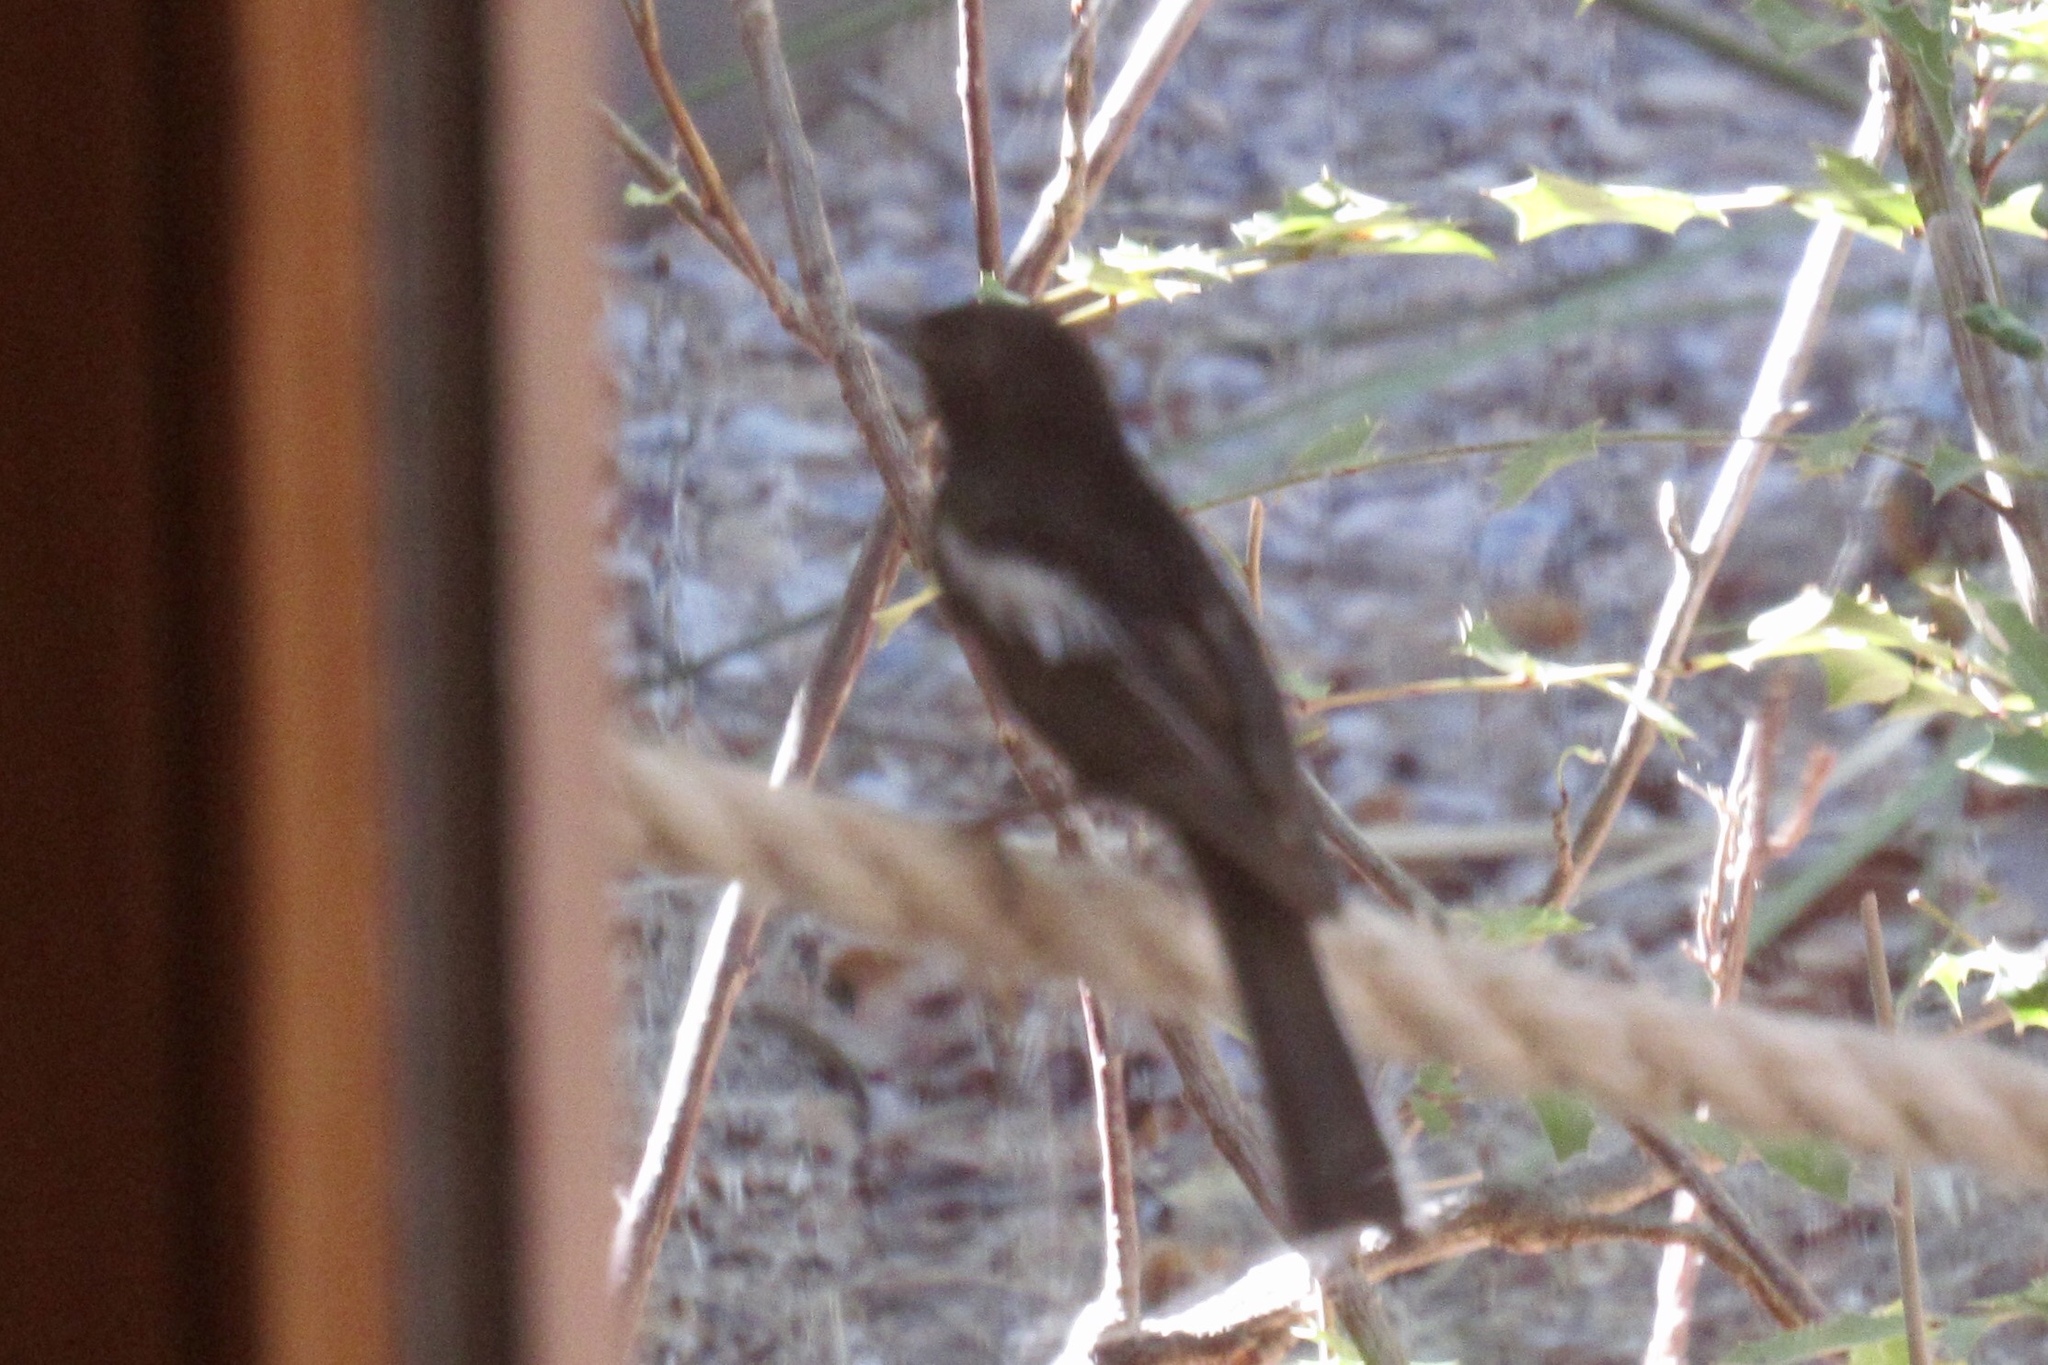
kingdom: Animalia
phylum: Chordata
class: Aves
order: Passeriformes
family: Parulidae
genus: Myioborus
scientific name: Myioborus pictus
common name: Painted whitestart
